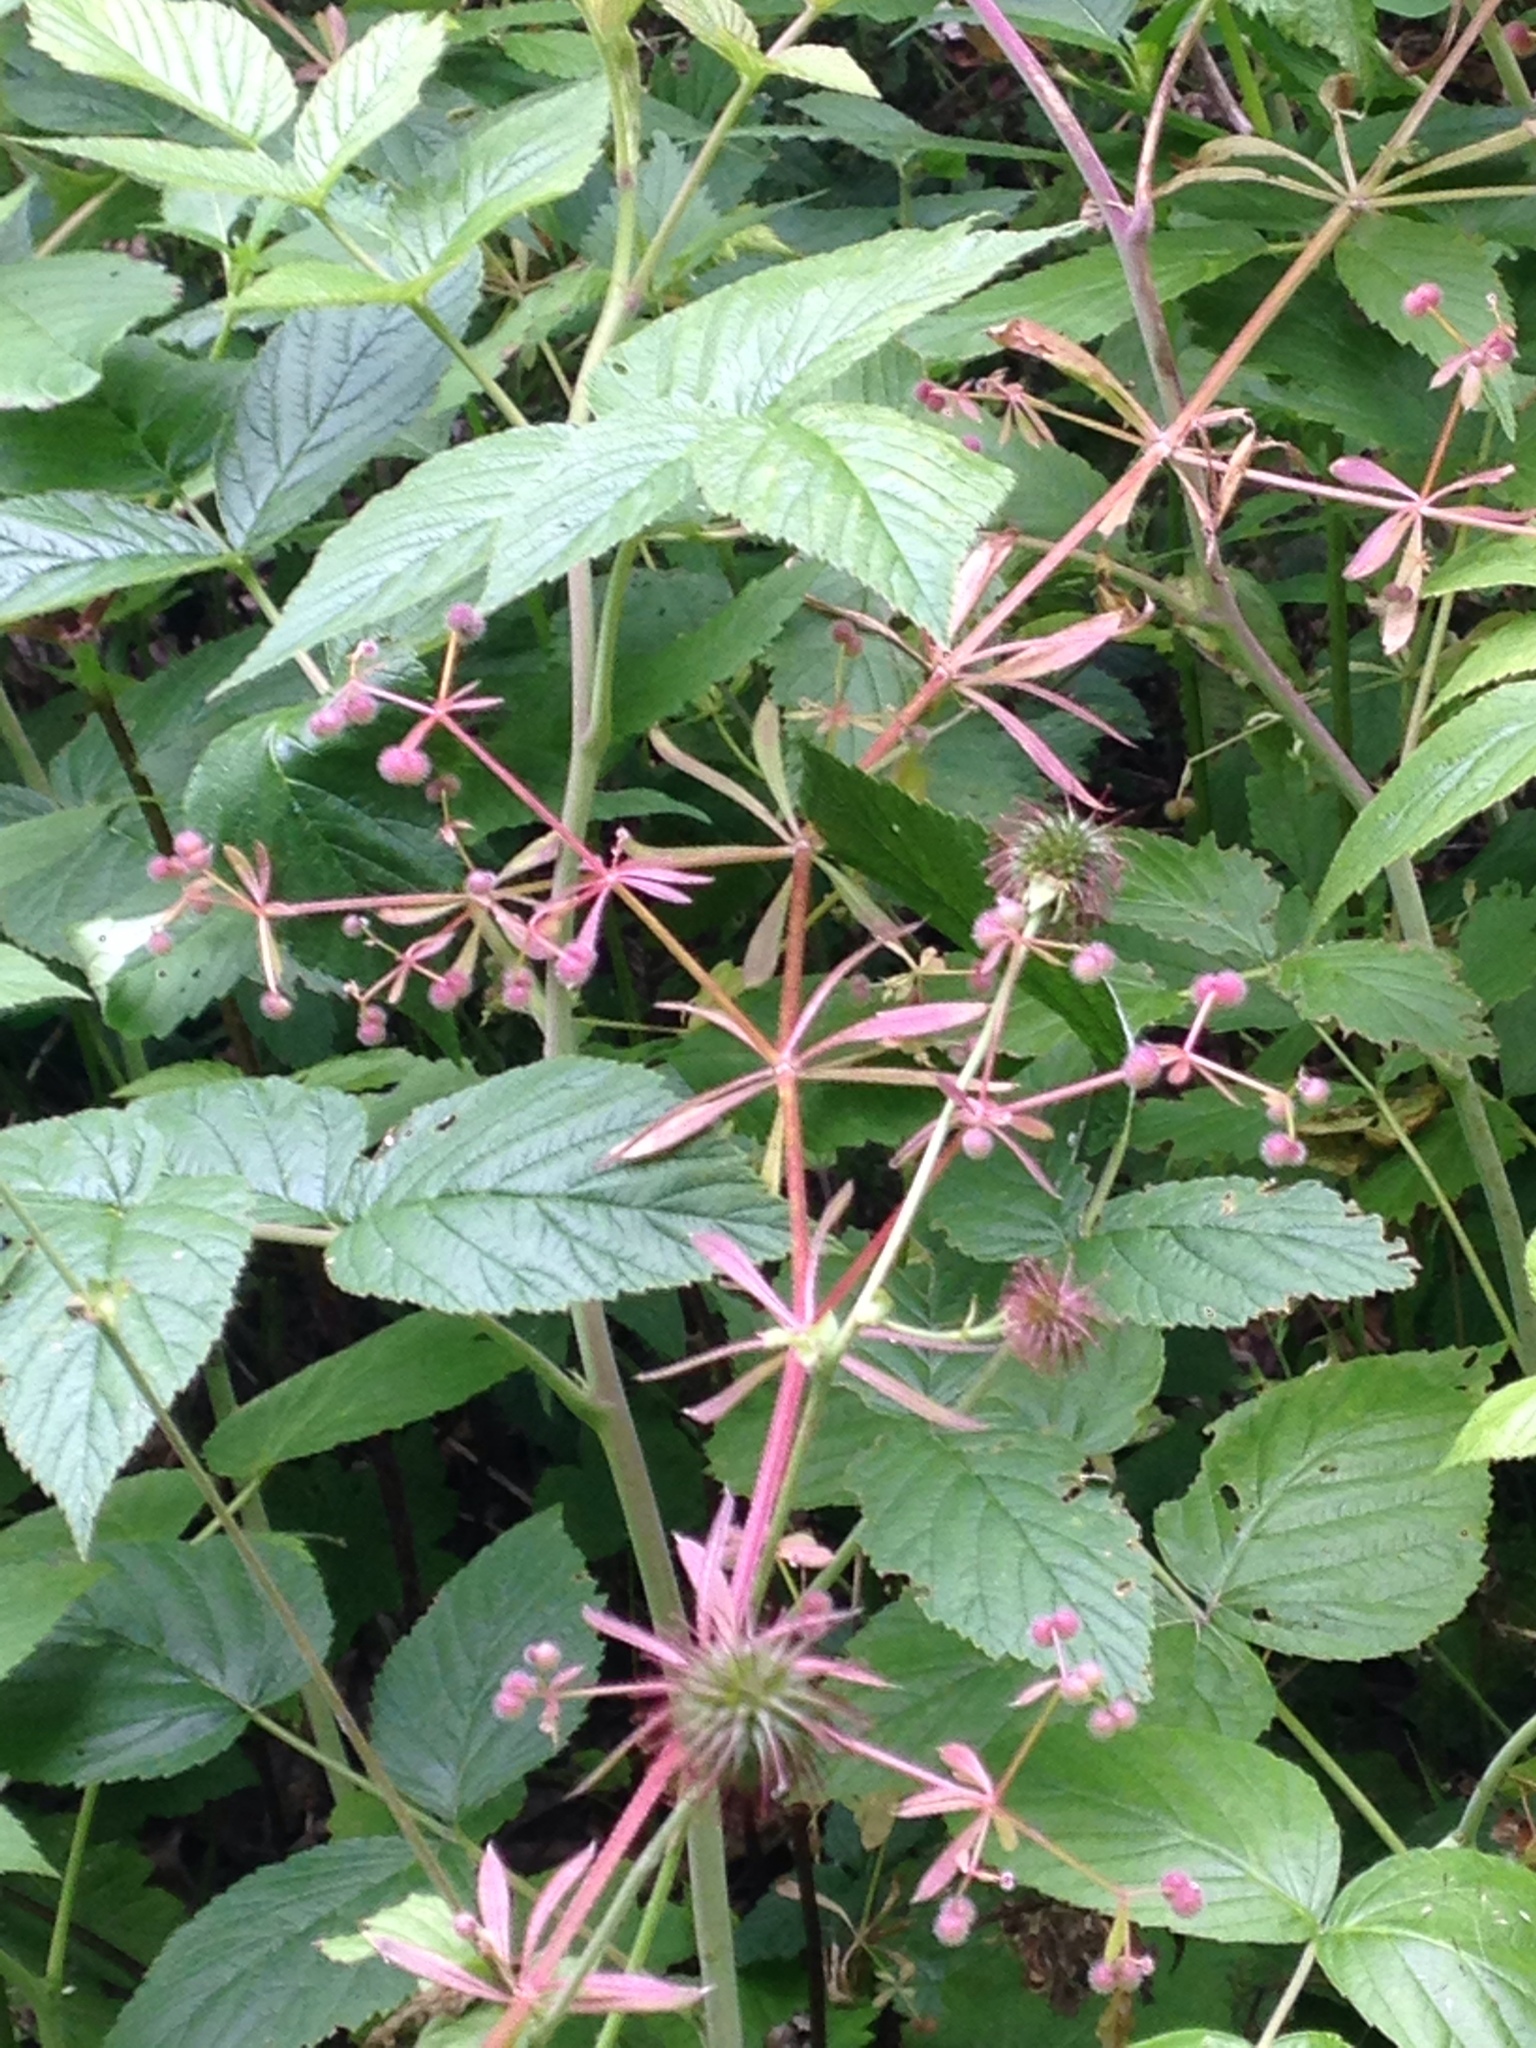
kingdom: Plantae
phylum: Tracheophyta
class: Magnoliopsida
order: Rosales
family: Rosaceae
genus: Geum
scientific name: Geum urbanum
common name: Wood avens
